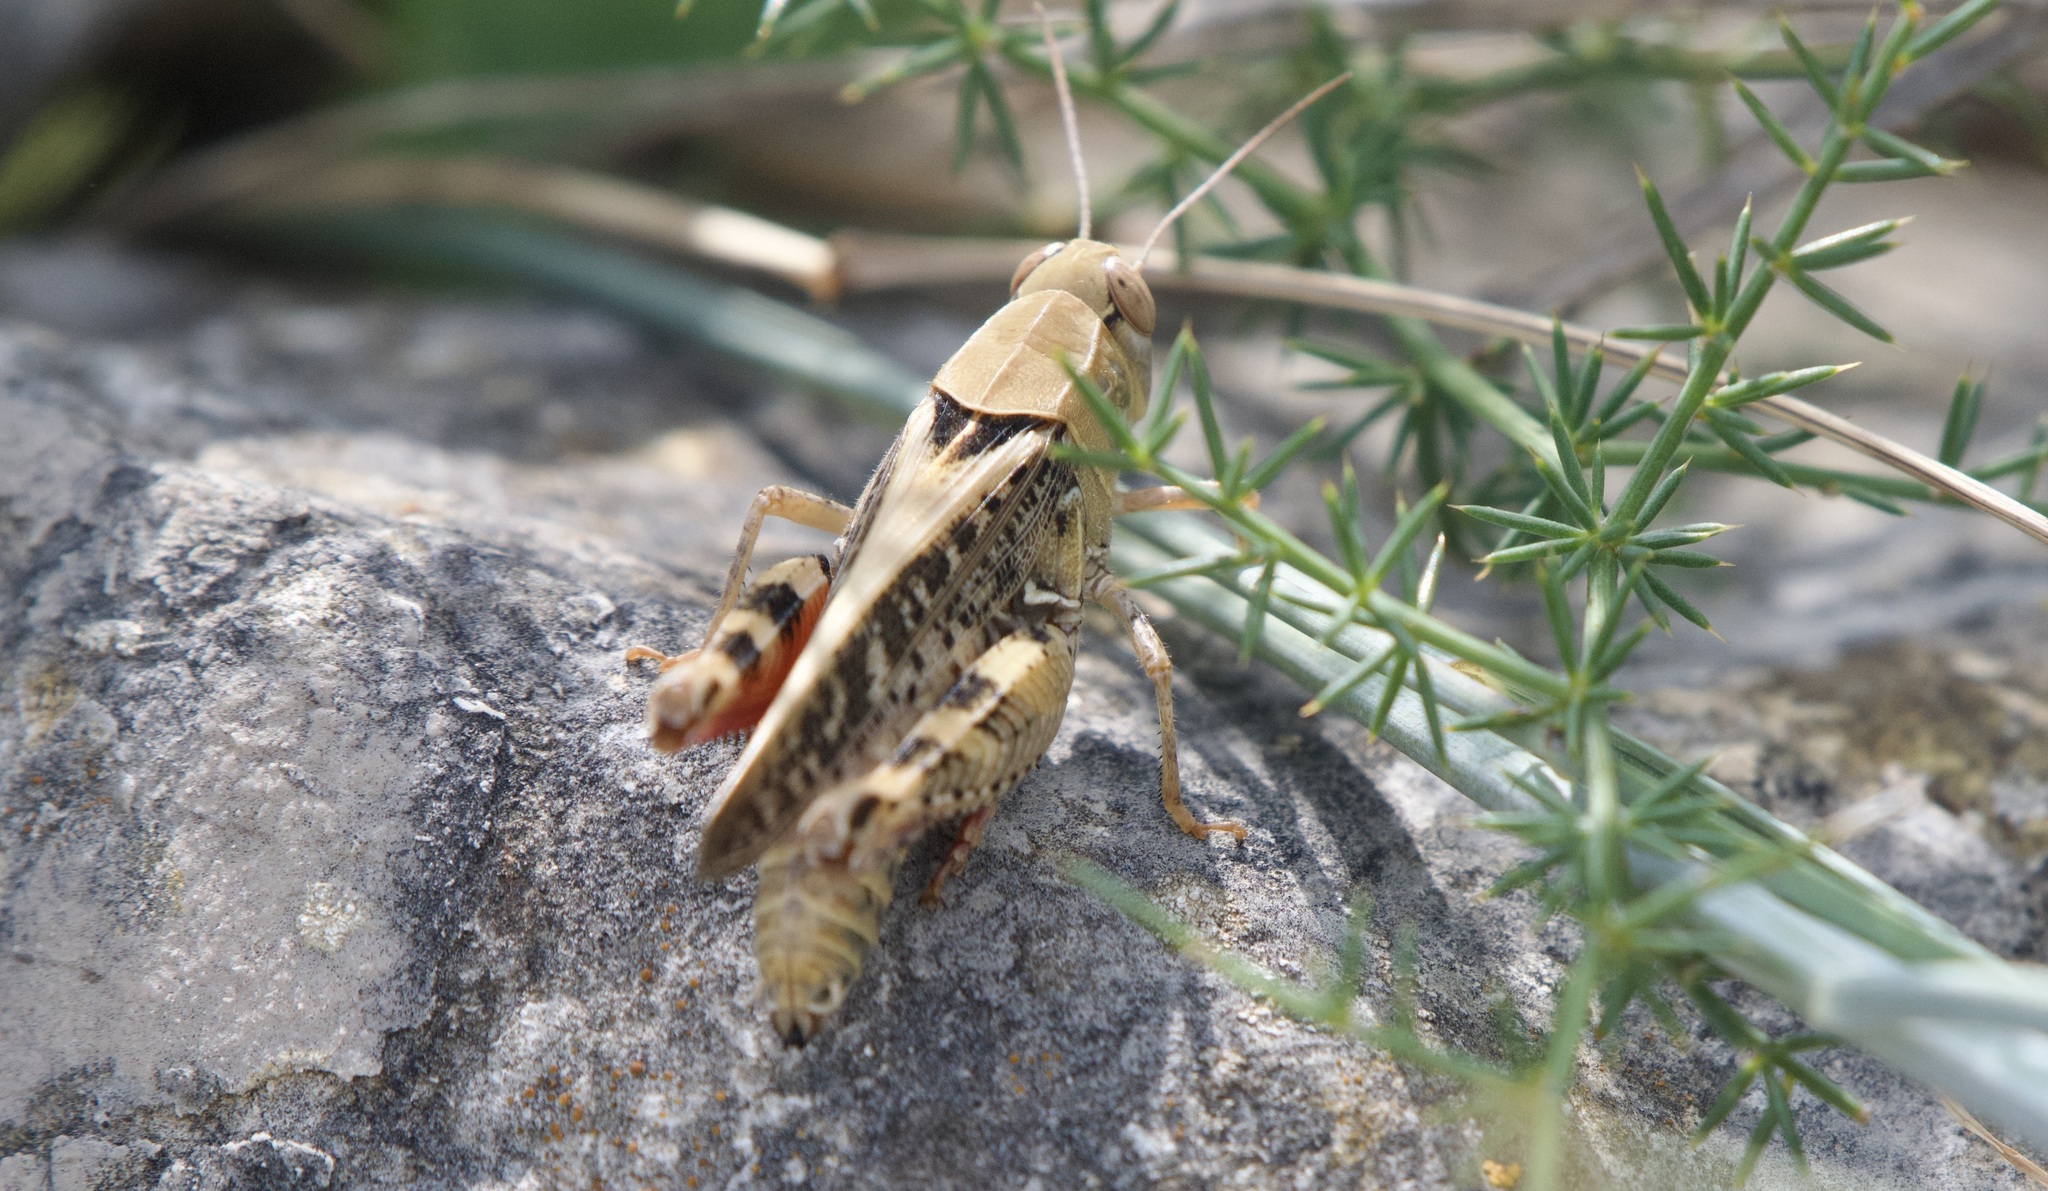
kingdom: Animalia
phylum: Arthropoda
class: Insecta
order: Orthoptera
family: Acrididae
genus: Calliptamus
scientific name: Calliptamus italicus
